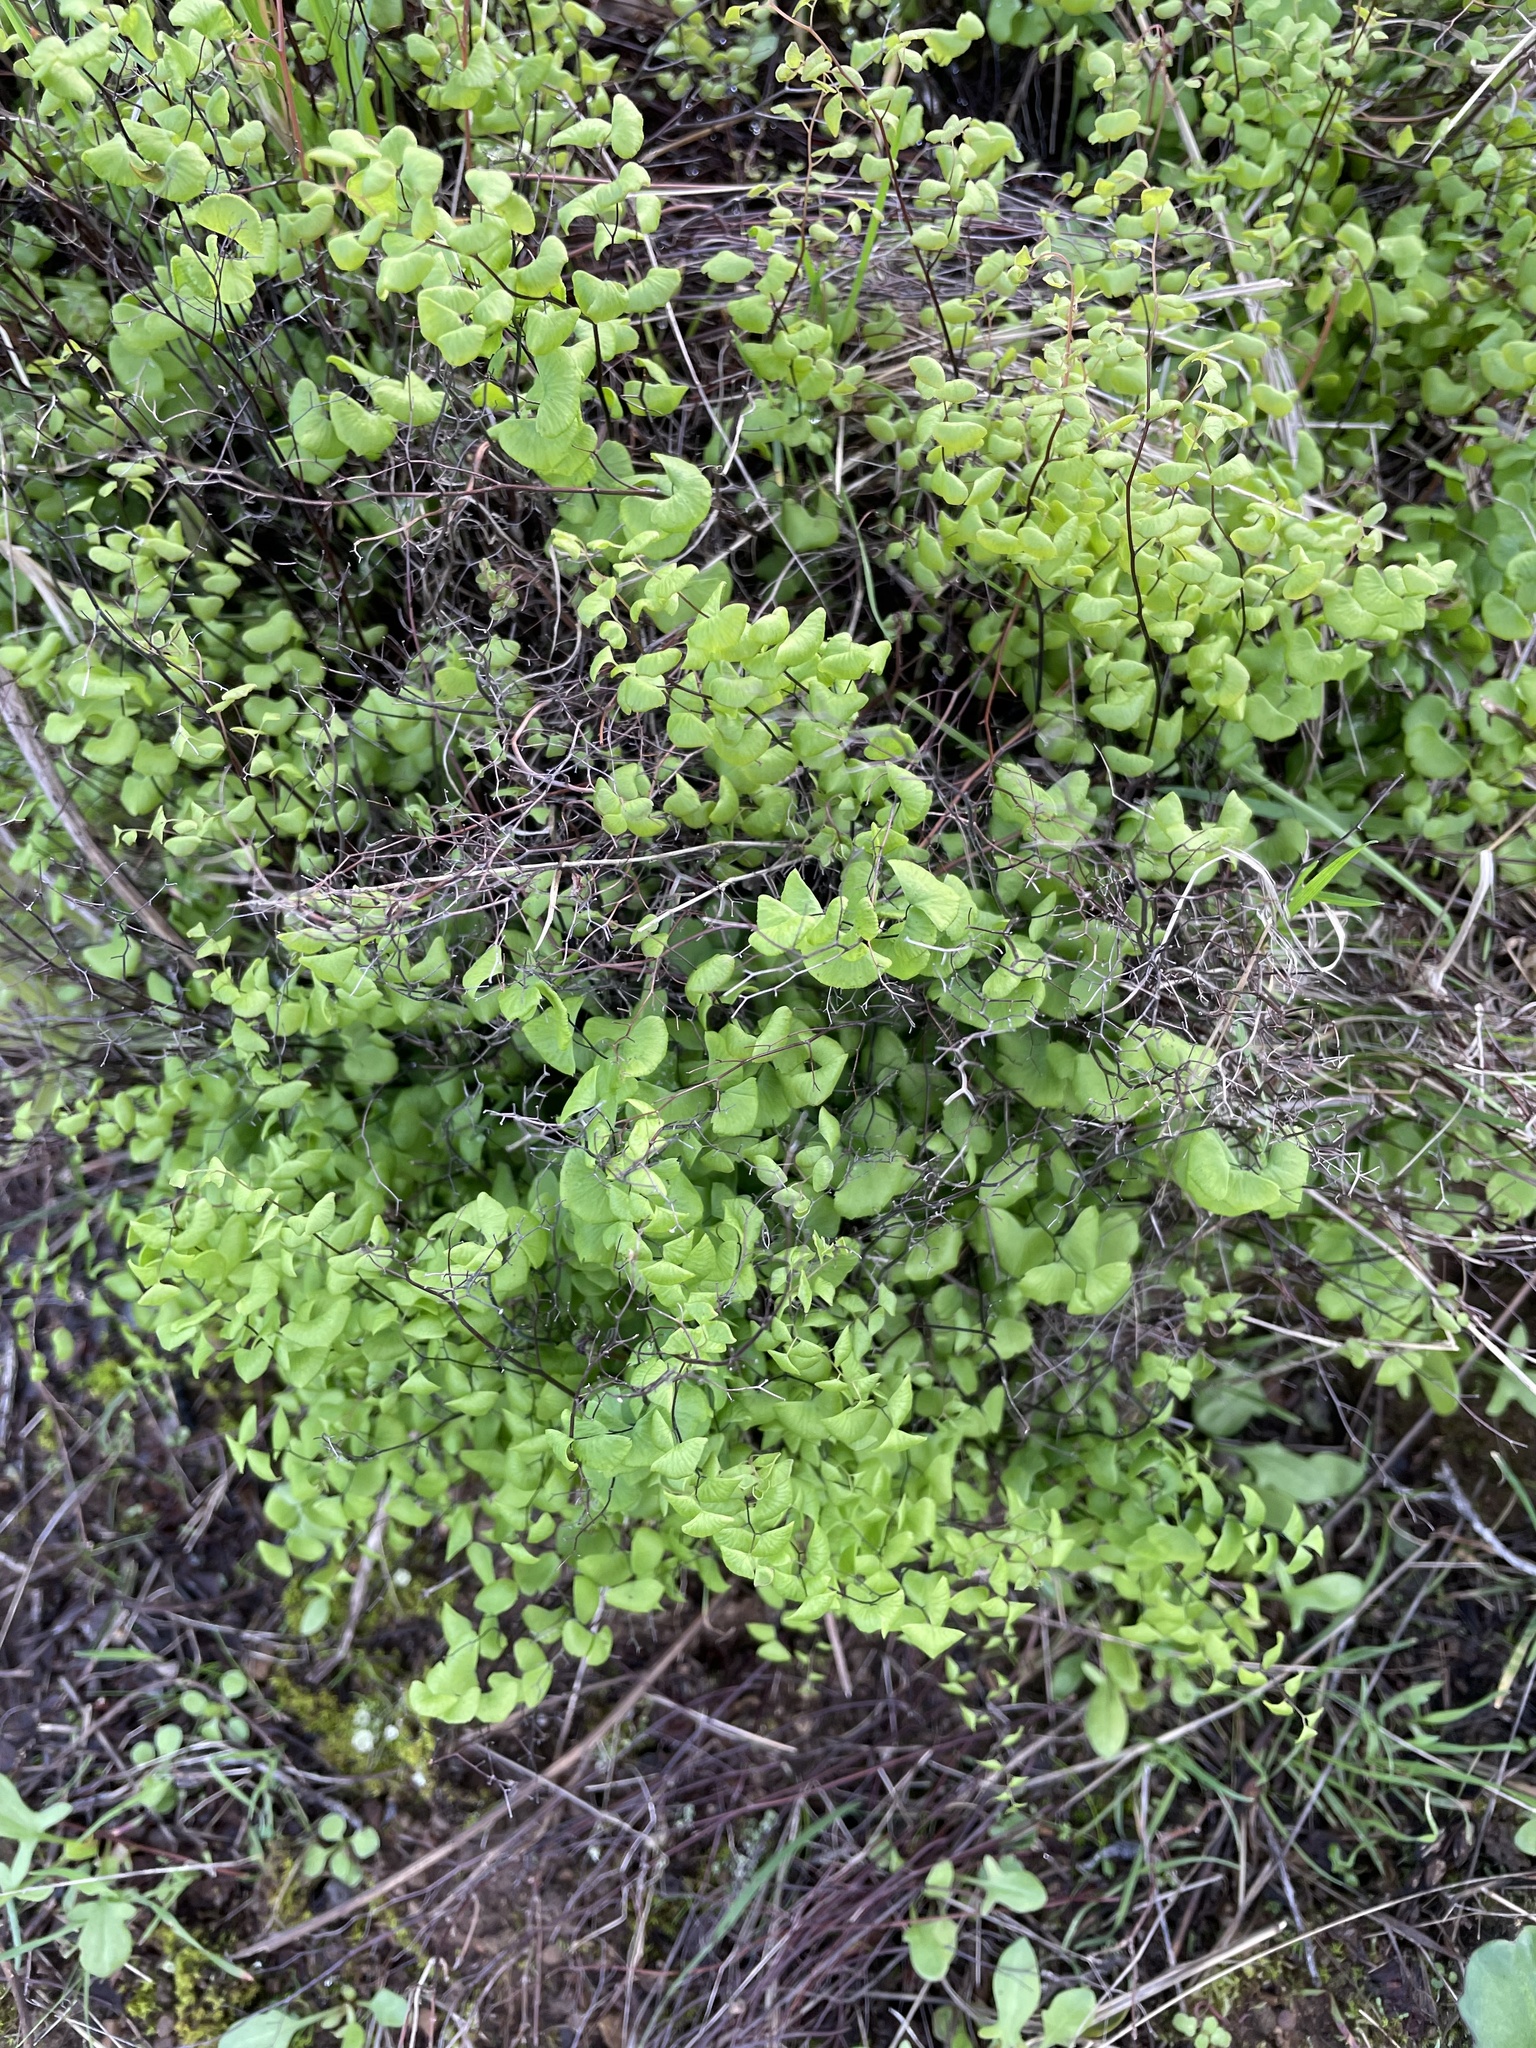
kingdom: Plantae
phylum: Tracheophyta
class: Polypodiopsida
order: Polypodiales
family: Pteridaceae
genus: Adiantum
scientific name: Adiantum jordanii
